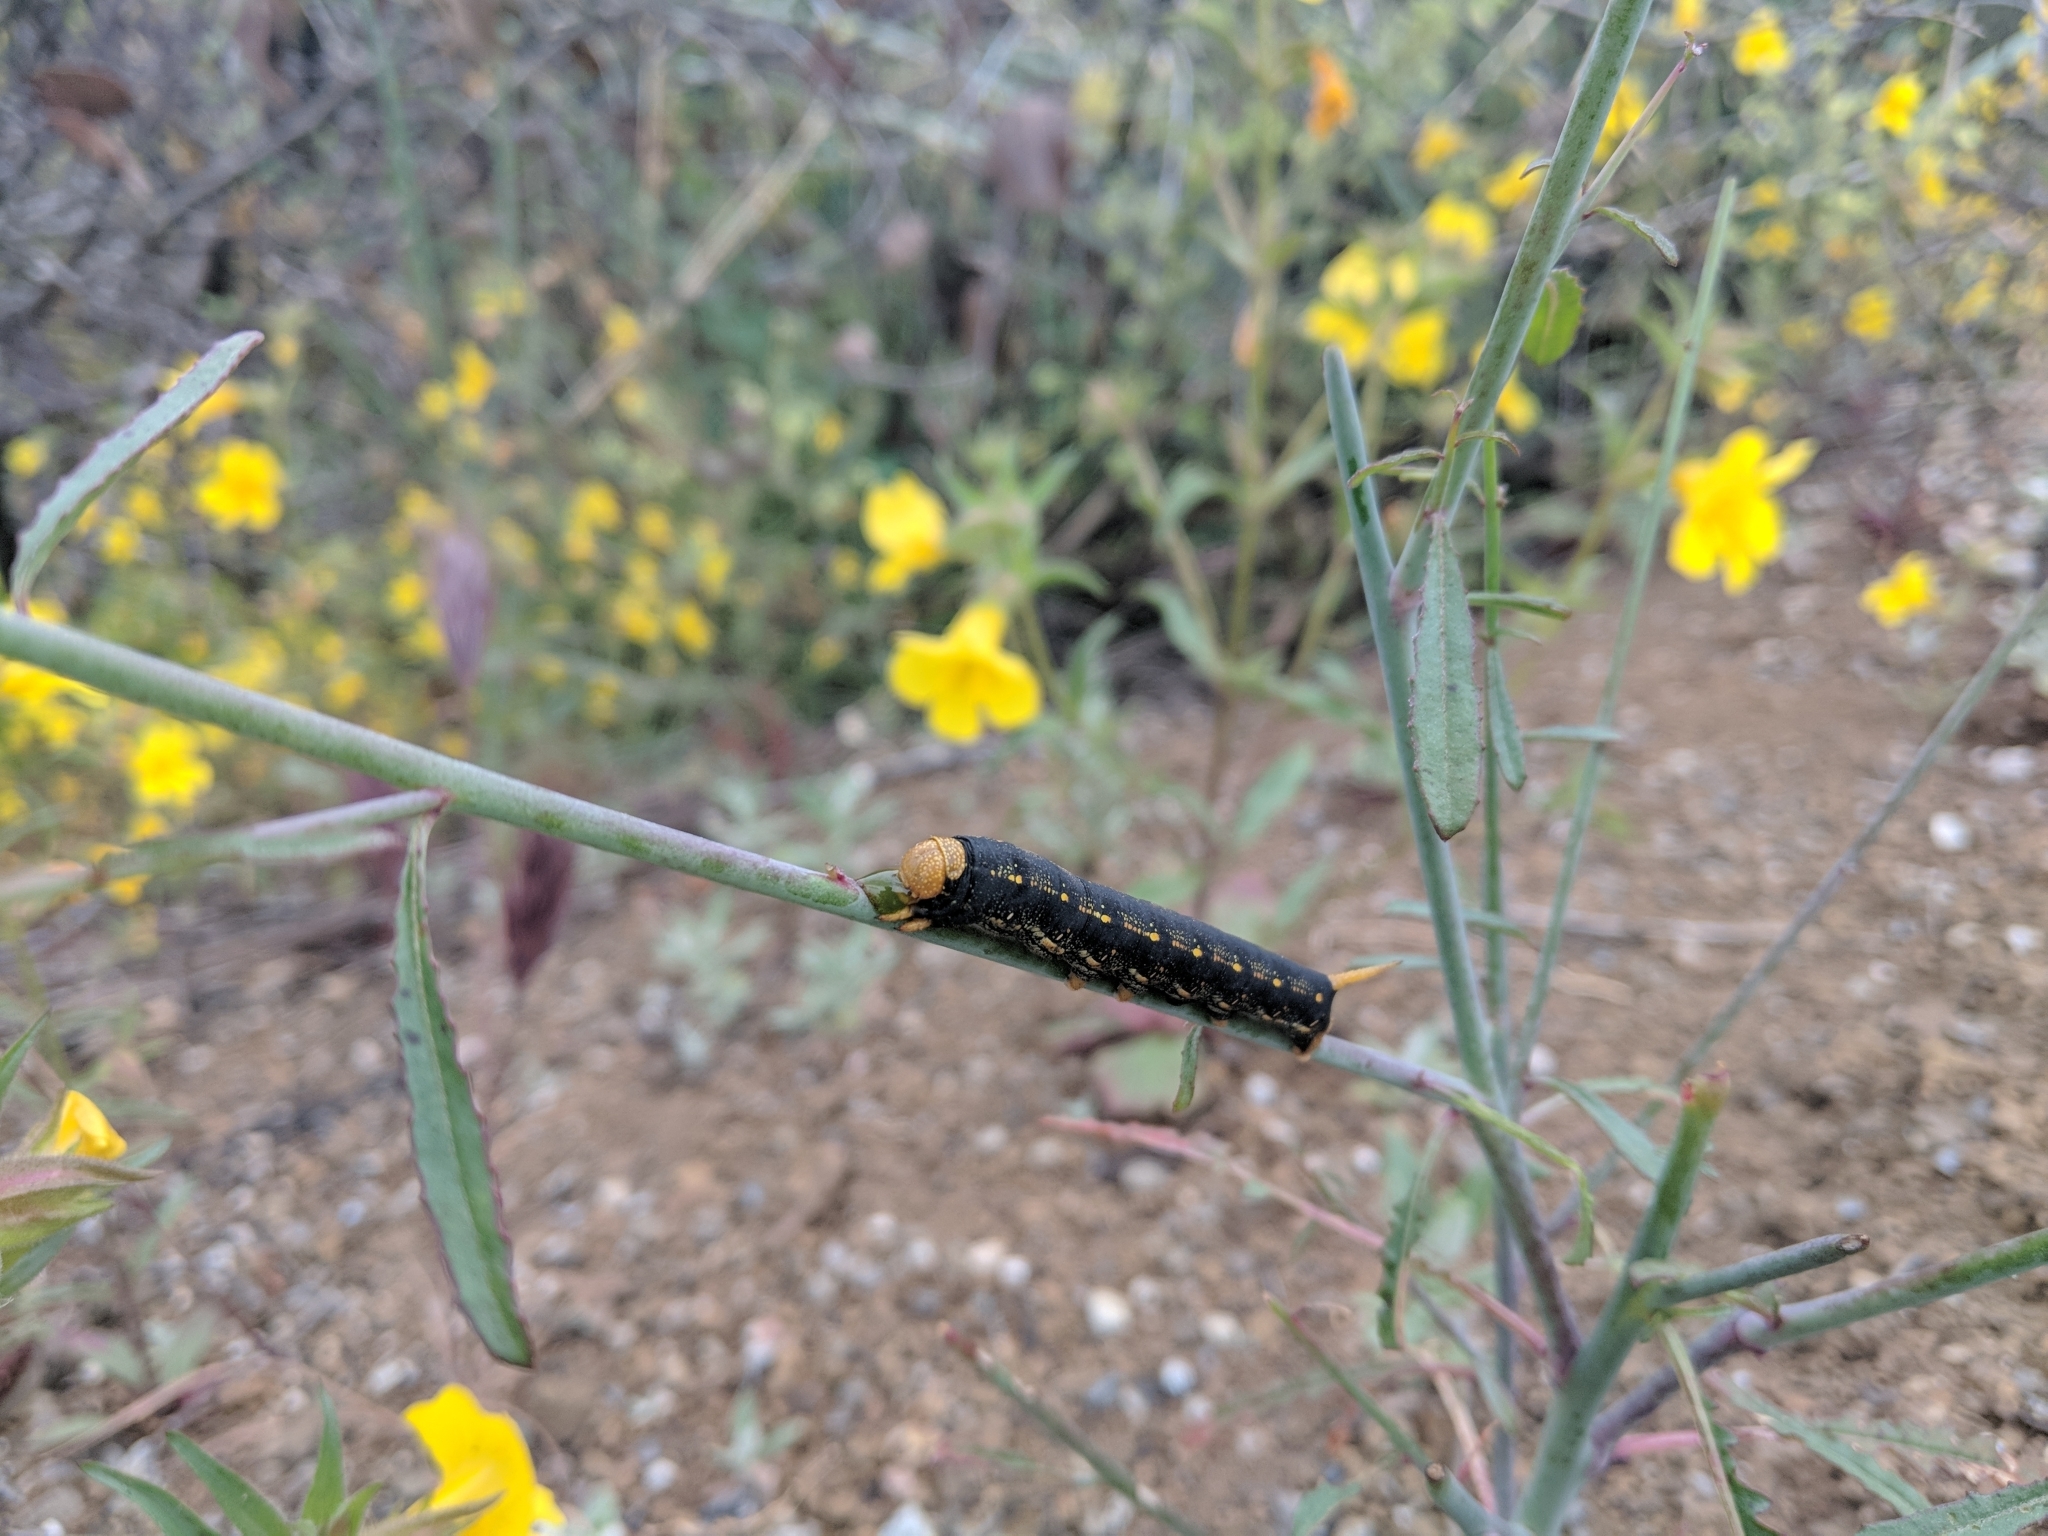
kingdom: Animalia
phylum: Arthropoda
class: Insecta
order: Lepidoptera
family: Sphingidae
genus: Hyles
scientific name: Hyles lineata
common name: White-lined sphinx
